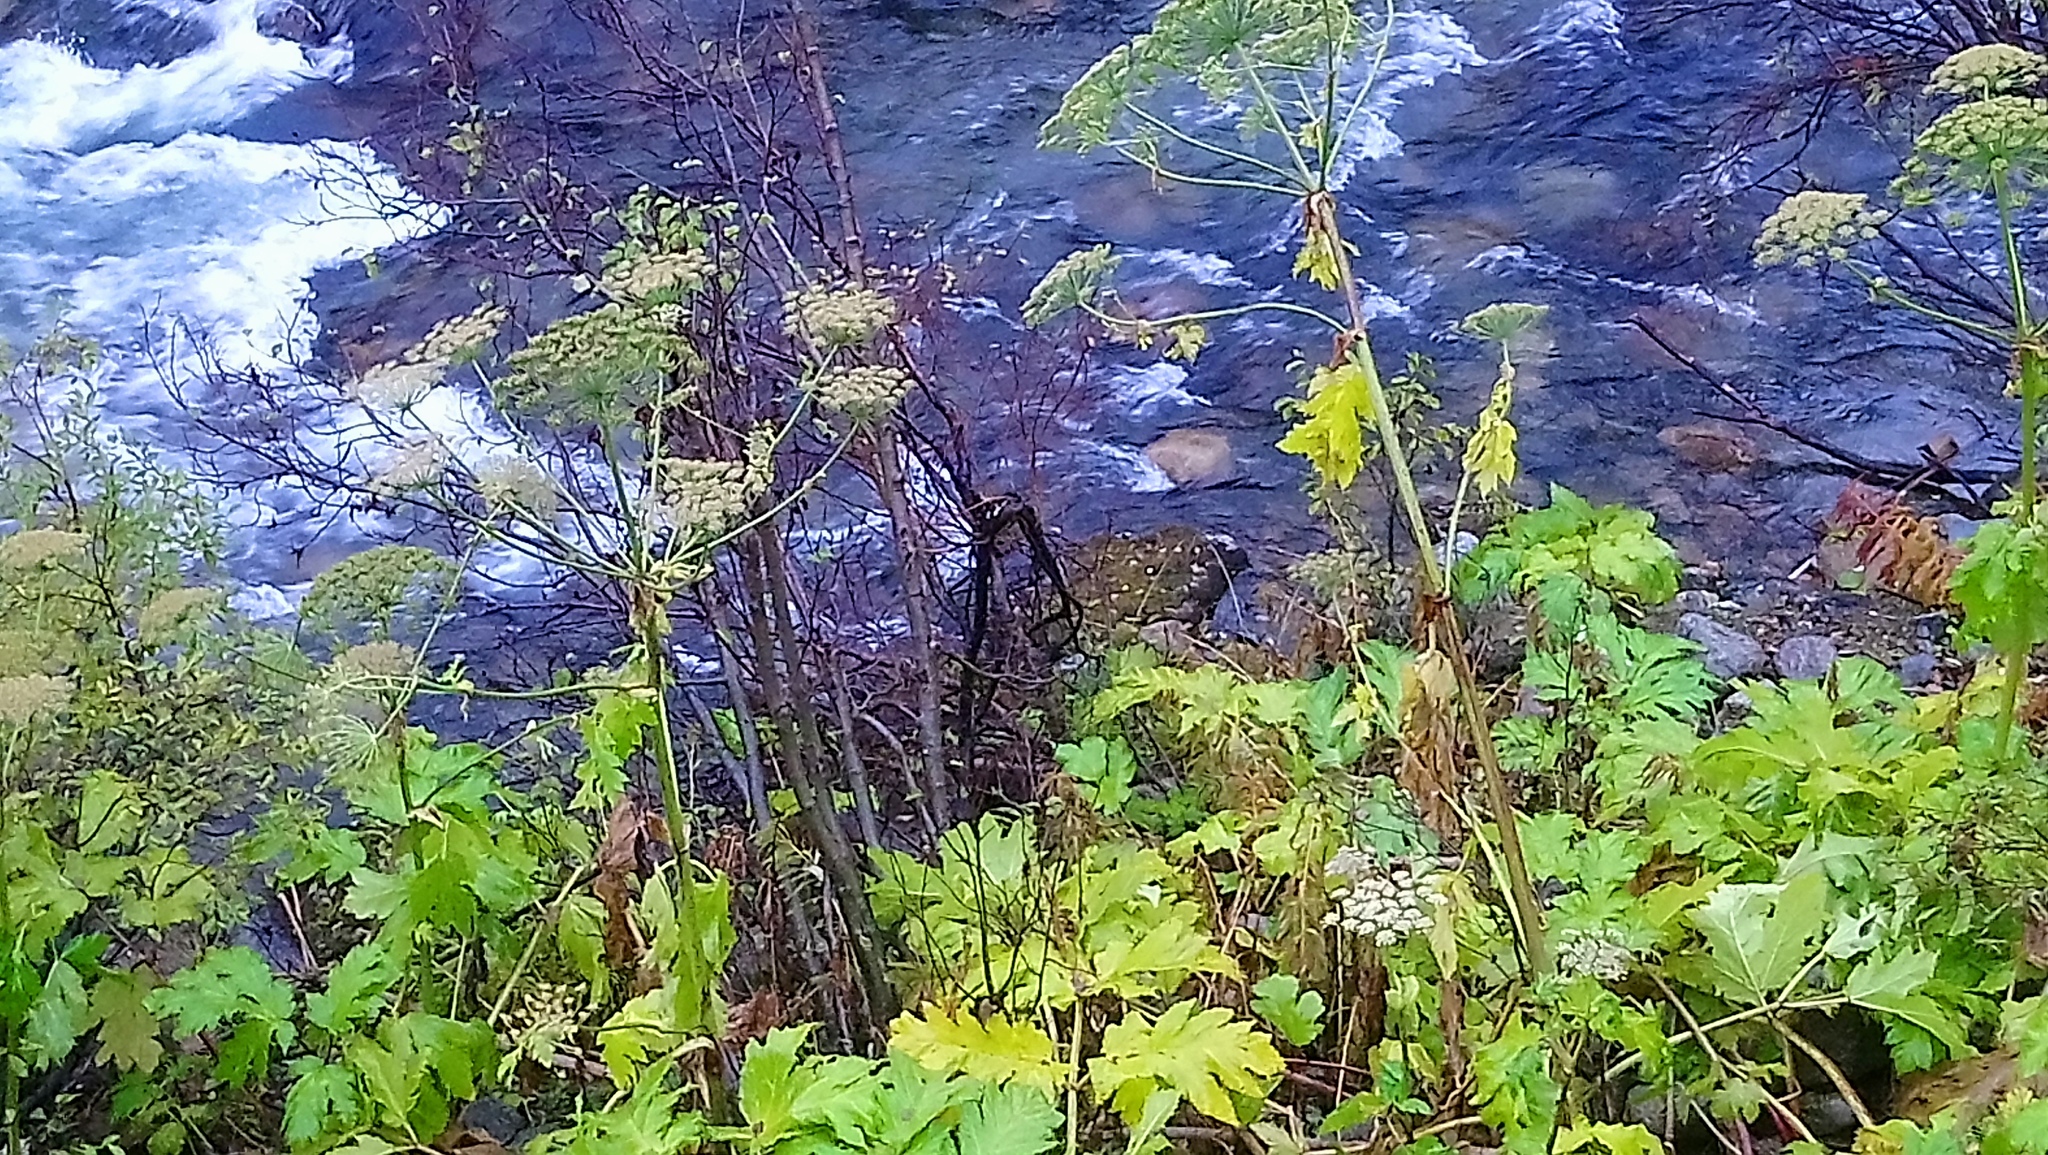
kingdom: Plantae
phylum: Tracheophyta
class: Magnoliopsida
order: Apiales
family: Apiaceae
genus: Heracleum
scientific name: Heracleum sosnowskyi
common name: Sosnowsky's hogweed
